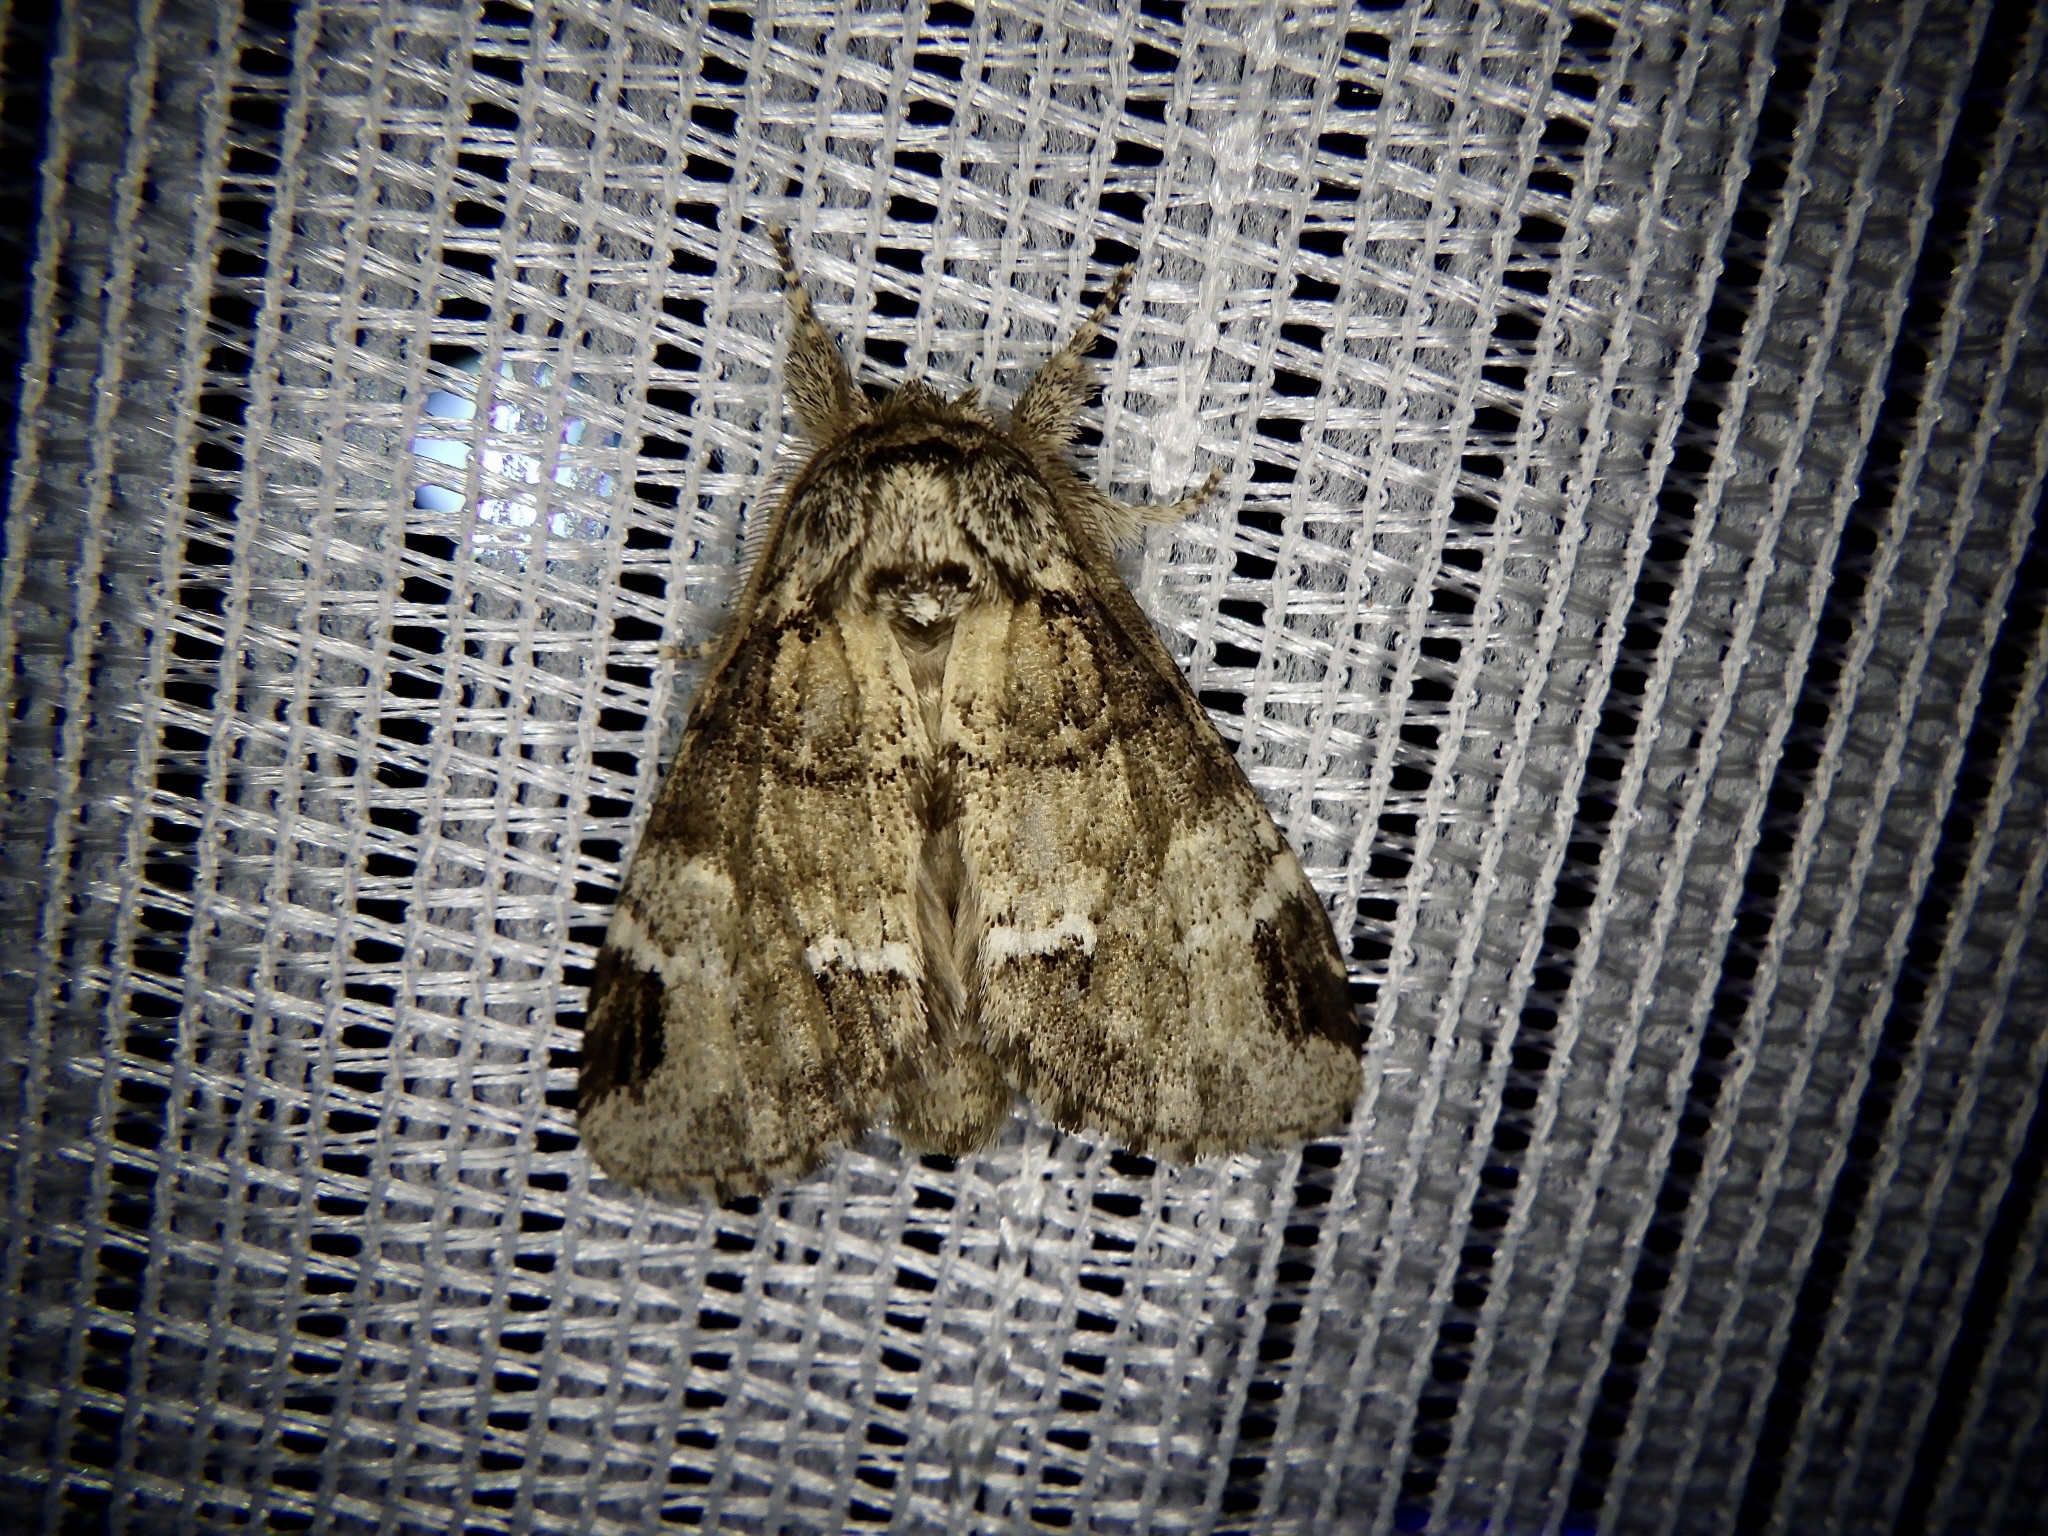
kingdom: Animalia
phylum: Arthropoda
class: Insecta
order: Lepidoptera
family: Notodontidae
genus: Drymonia
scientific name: Drymonia japonica
